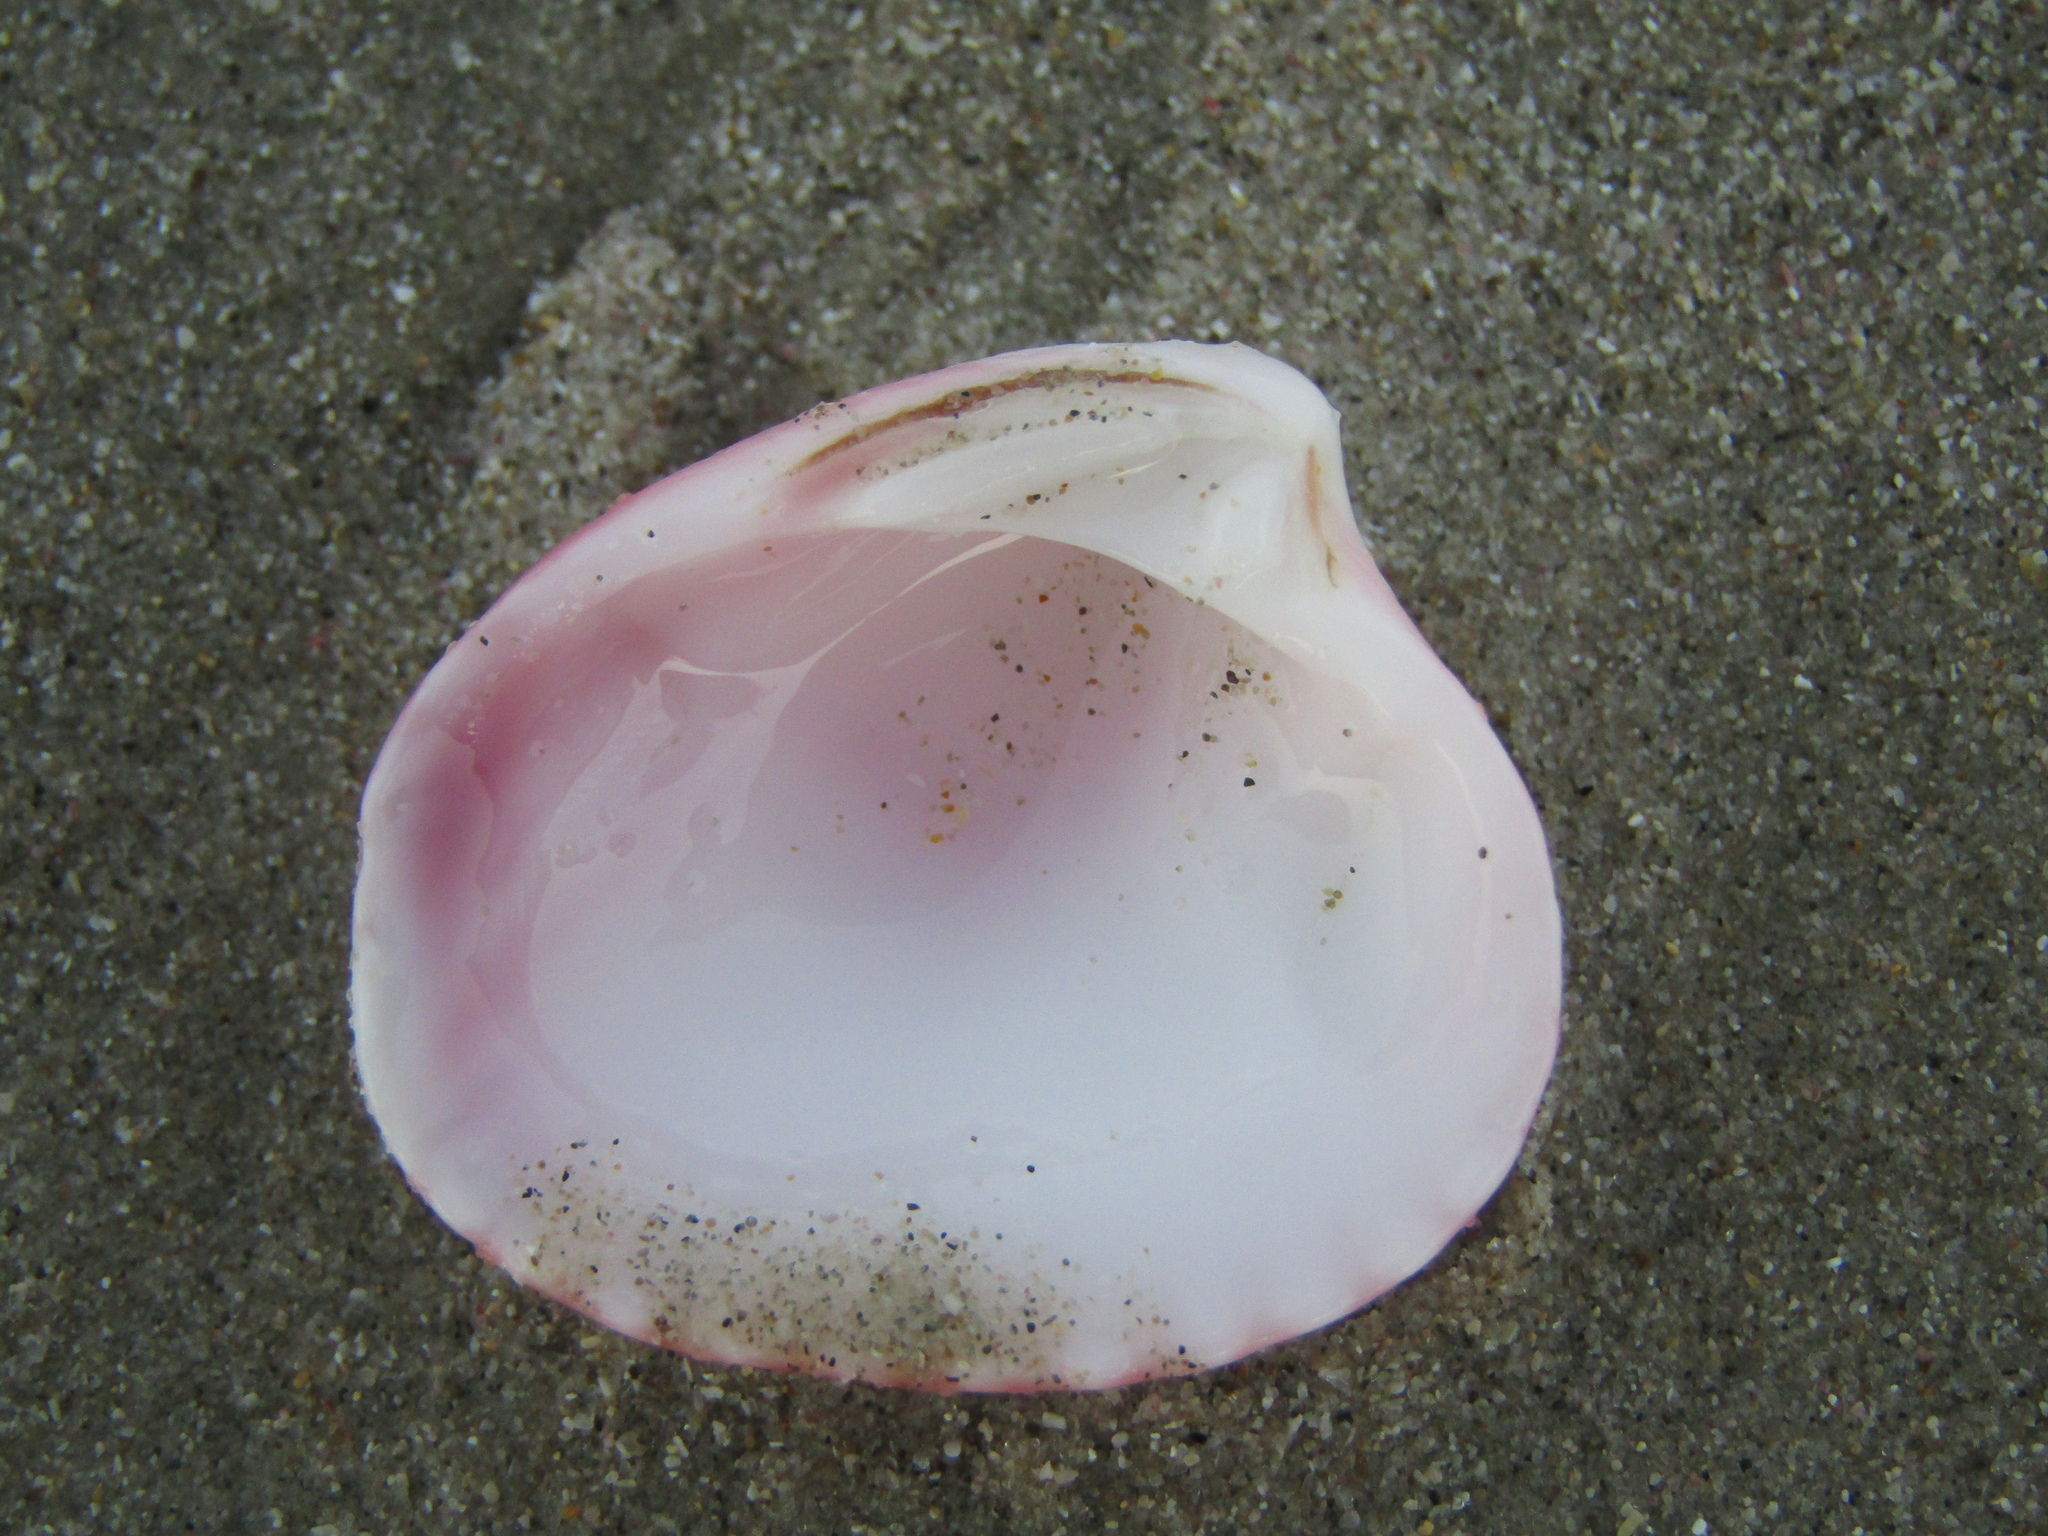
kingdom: Animalia
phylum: Mollusca
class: Bivalvia
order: Carditida
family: Carditidae
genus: Purpurocardia
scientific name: Purpurocardia purpurata
